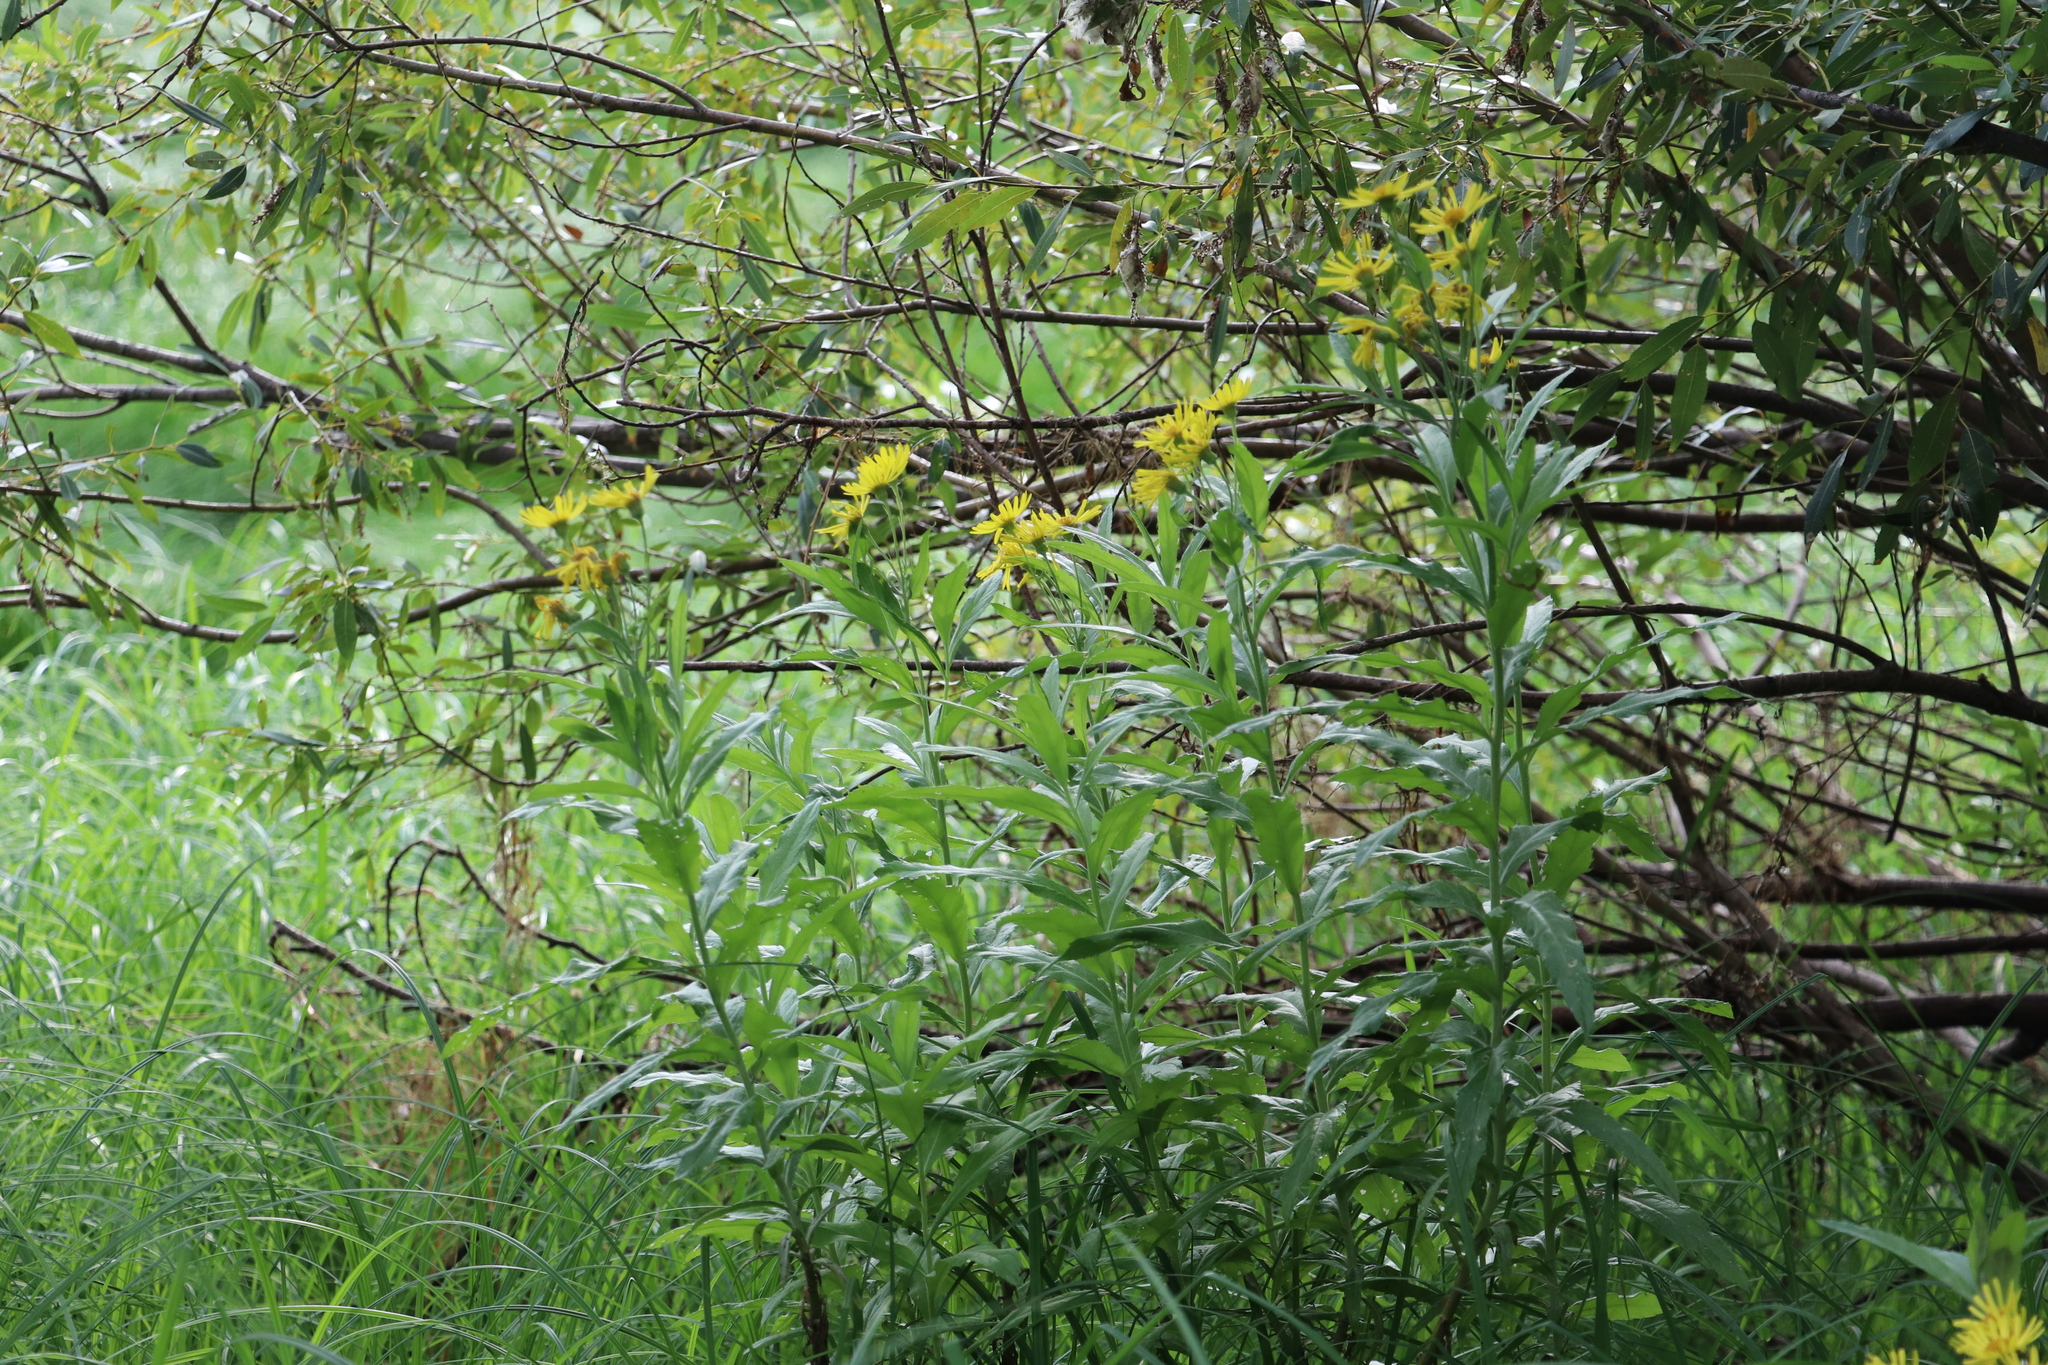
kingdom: Plantae
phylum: Tracheophyta
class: Magnoliopsida
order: Asterales
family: Asteraceae
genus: Jacobaea
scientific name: Jacobaea paludosa
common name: Fen ragwort
